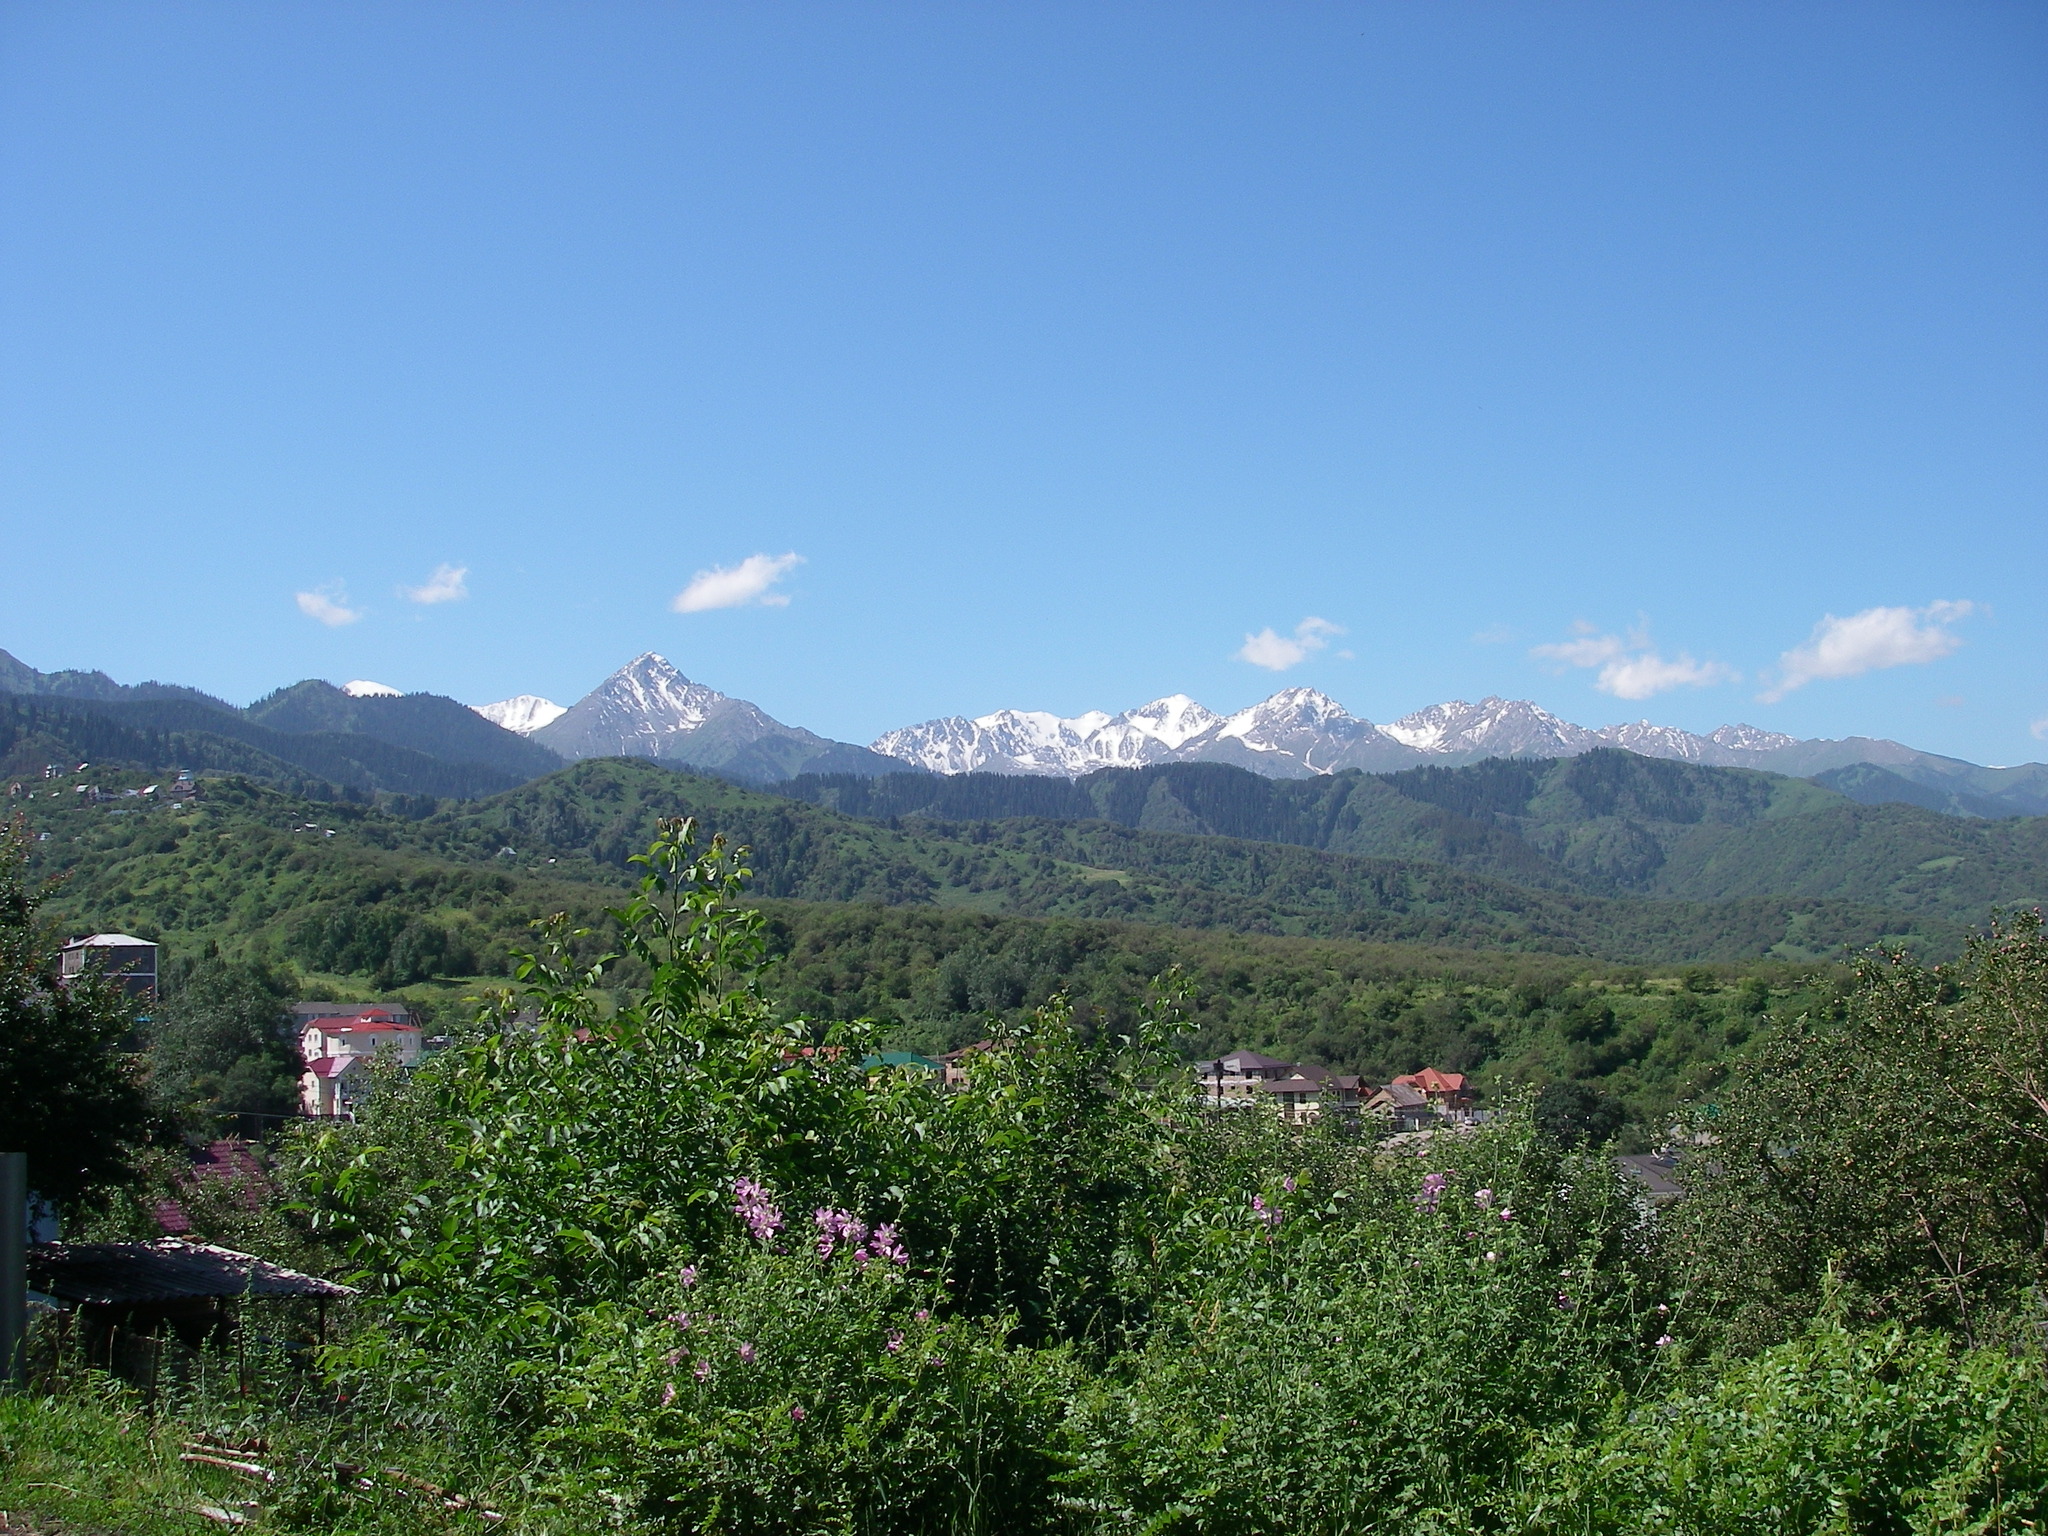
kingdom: Plantae
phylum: Tracheophyta
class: Magnoliopsida
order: Malvales
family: Malvaceae
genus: Malva
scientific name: Malva thuringiaca
